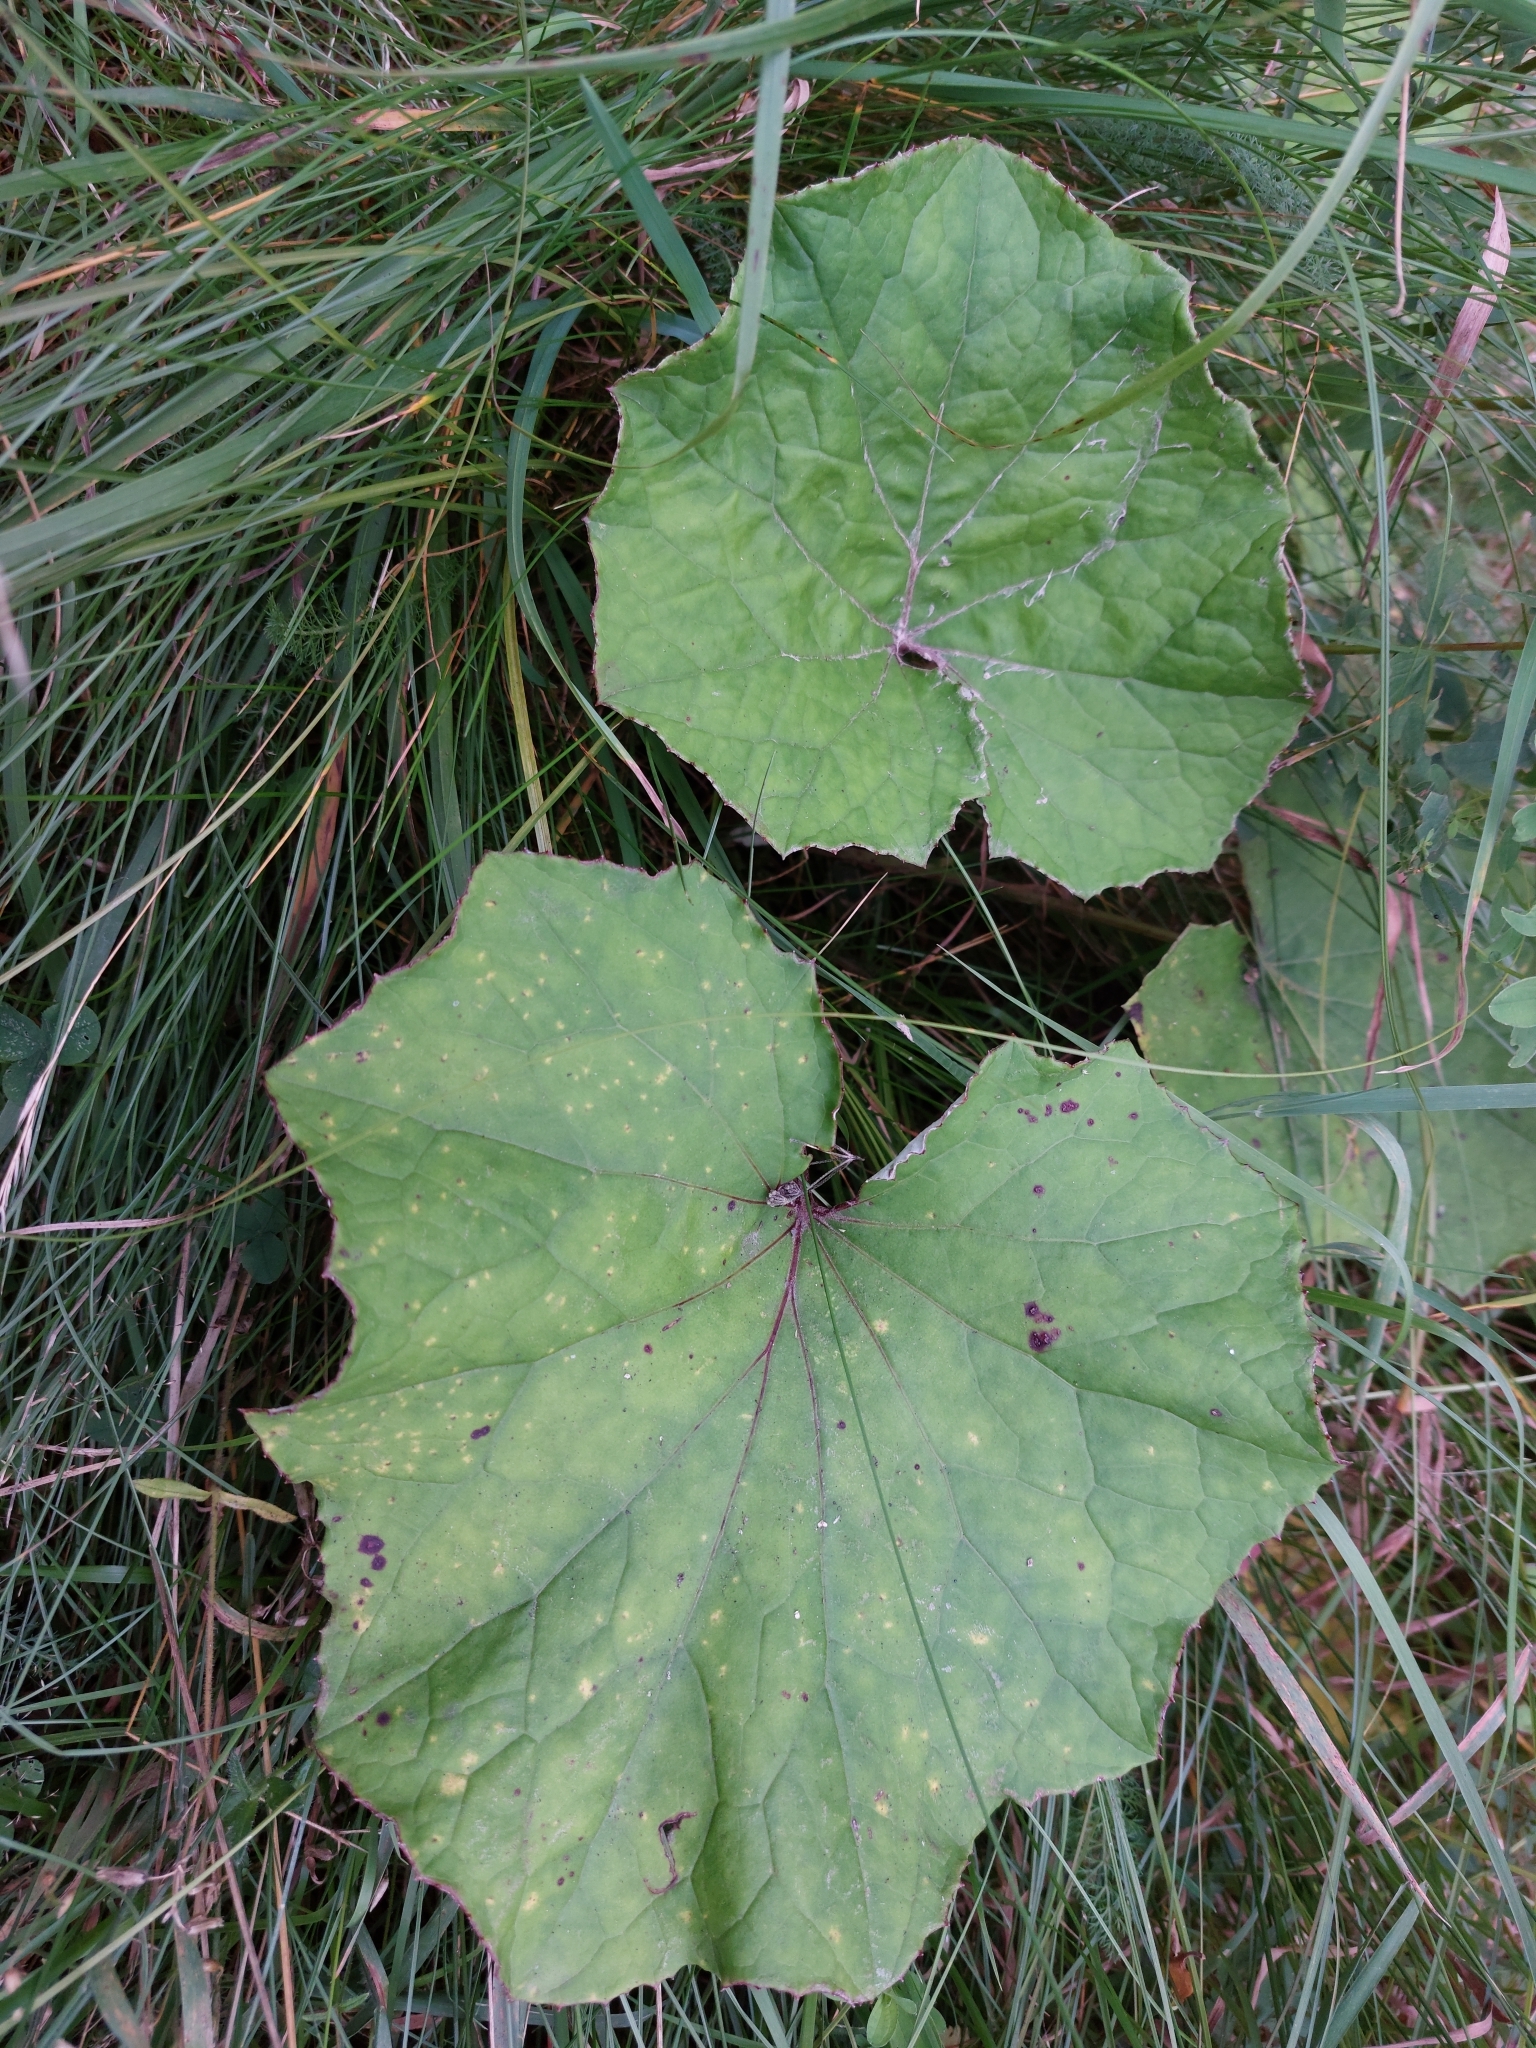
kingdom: Plantae
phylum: Tracheophyta
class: Magnoliopsida
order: Asterales
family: Asteraceae
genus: Tussilago
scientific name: Tussilago farfara
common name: Coltsfoot
